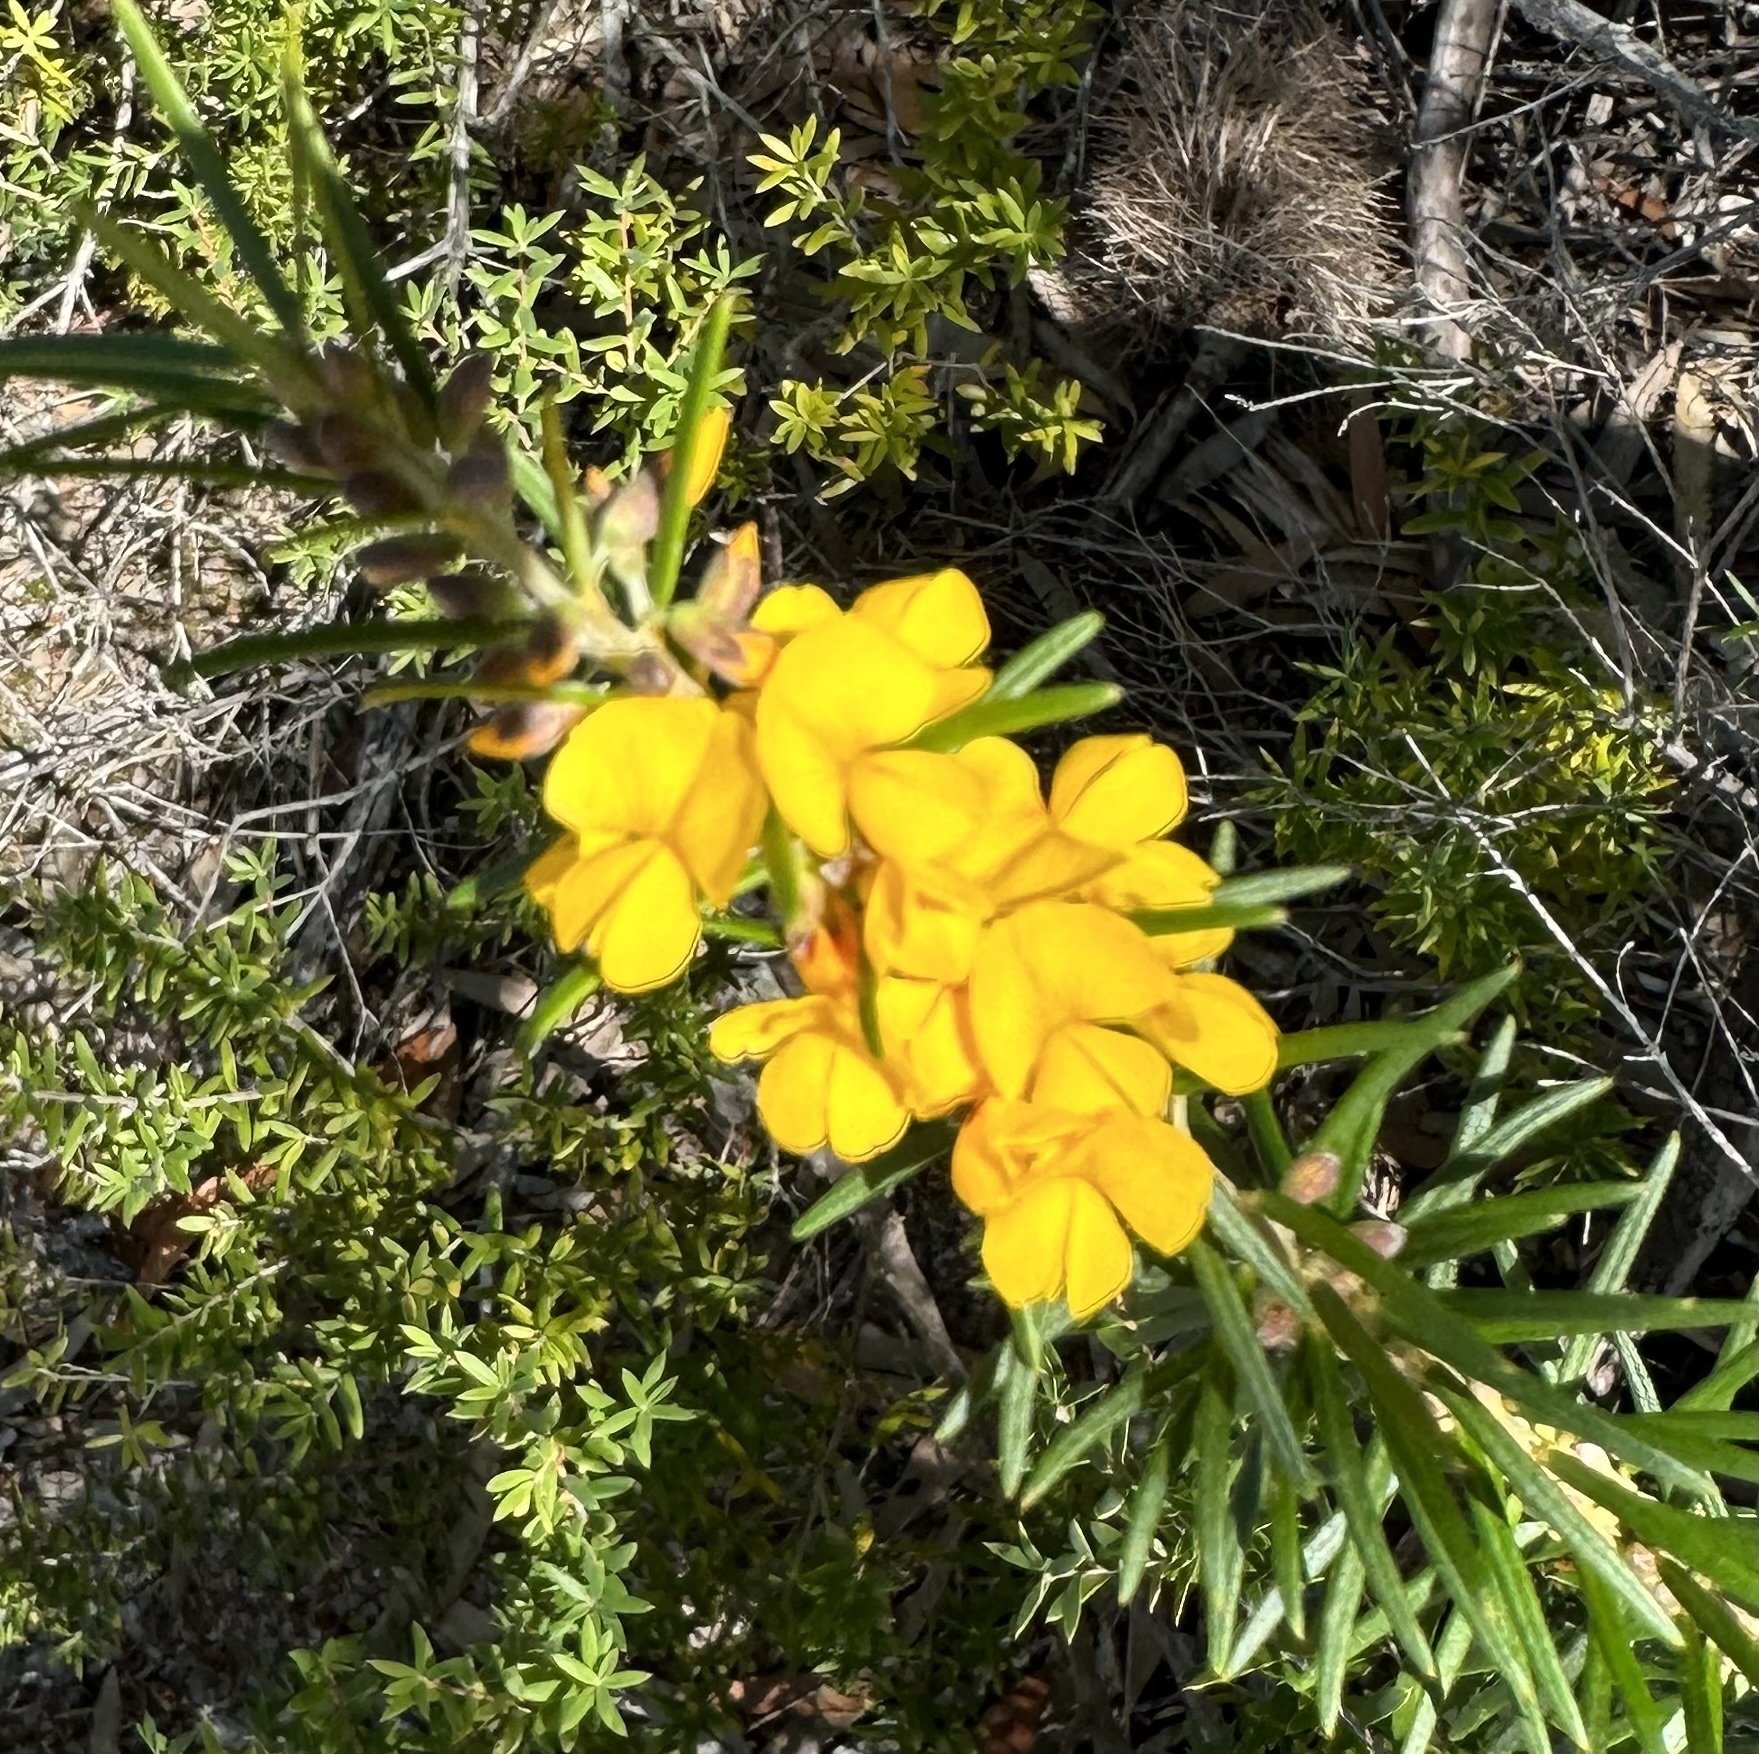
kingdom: Plantae
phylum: Tracheophyta
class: Magnoliopsida
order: Fabales
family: Fabaceae
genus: Aotus
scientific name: Aotus ericoides
